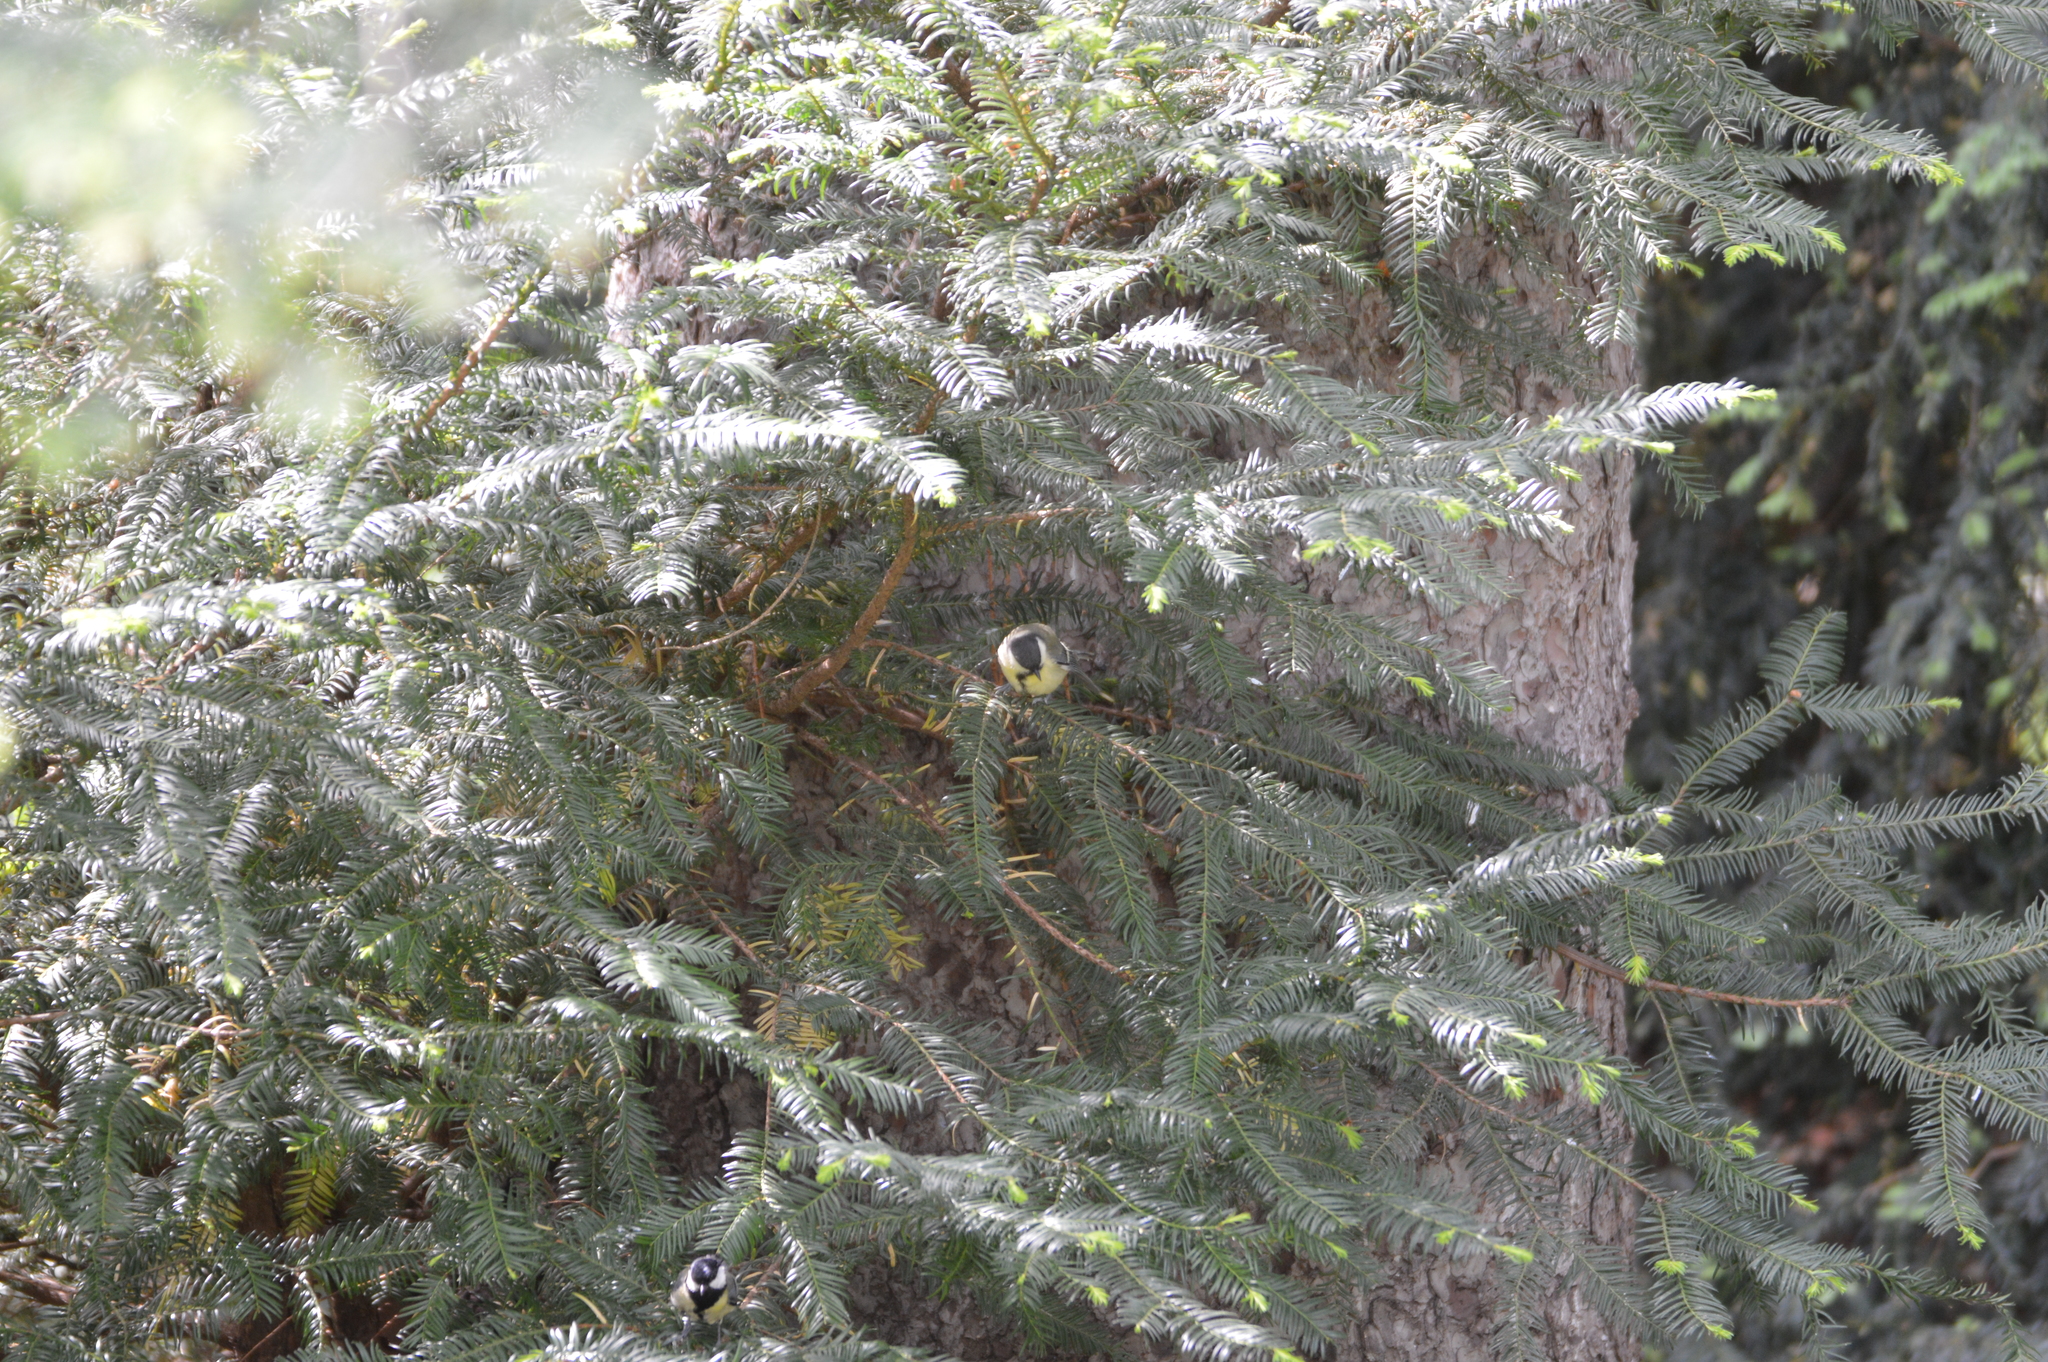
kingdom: Animalia
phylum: Chordata
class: Aves
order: Passeriformes
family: Paridae
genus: Parus
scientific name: Parus major
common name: Great tit
